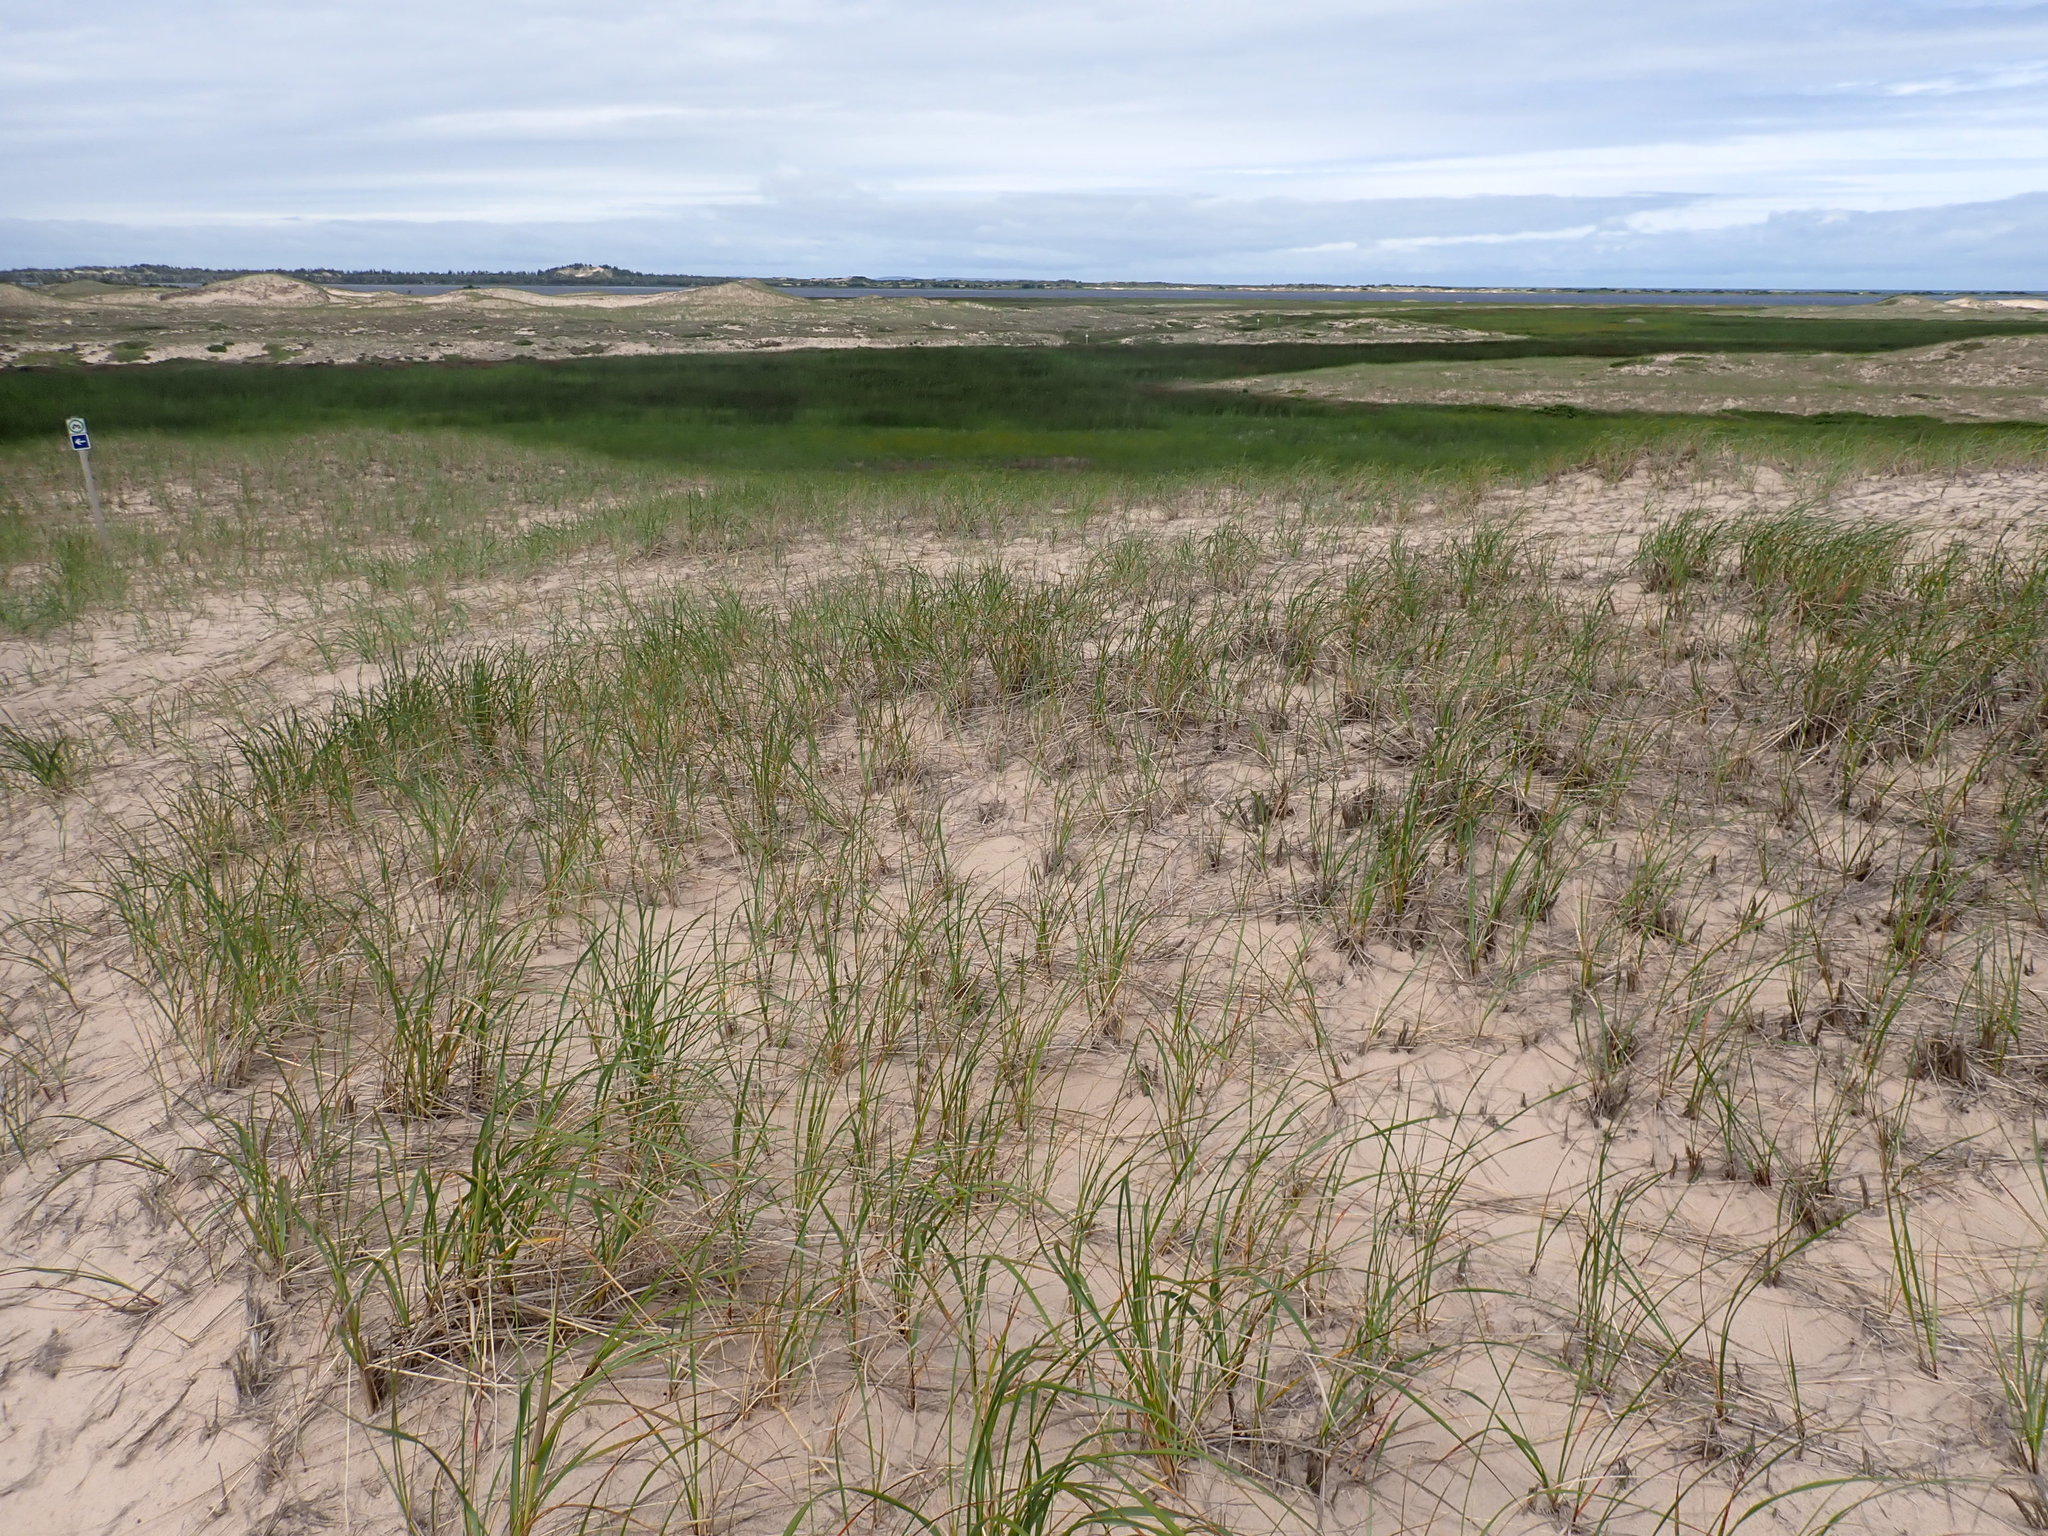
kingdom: Plantae
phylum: Tracheophyta
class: Liliopsida
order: Poales
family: Poaceae
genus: Calamagrostis
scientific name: Calamagrostis breviligulata
